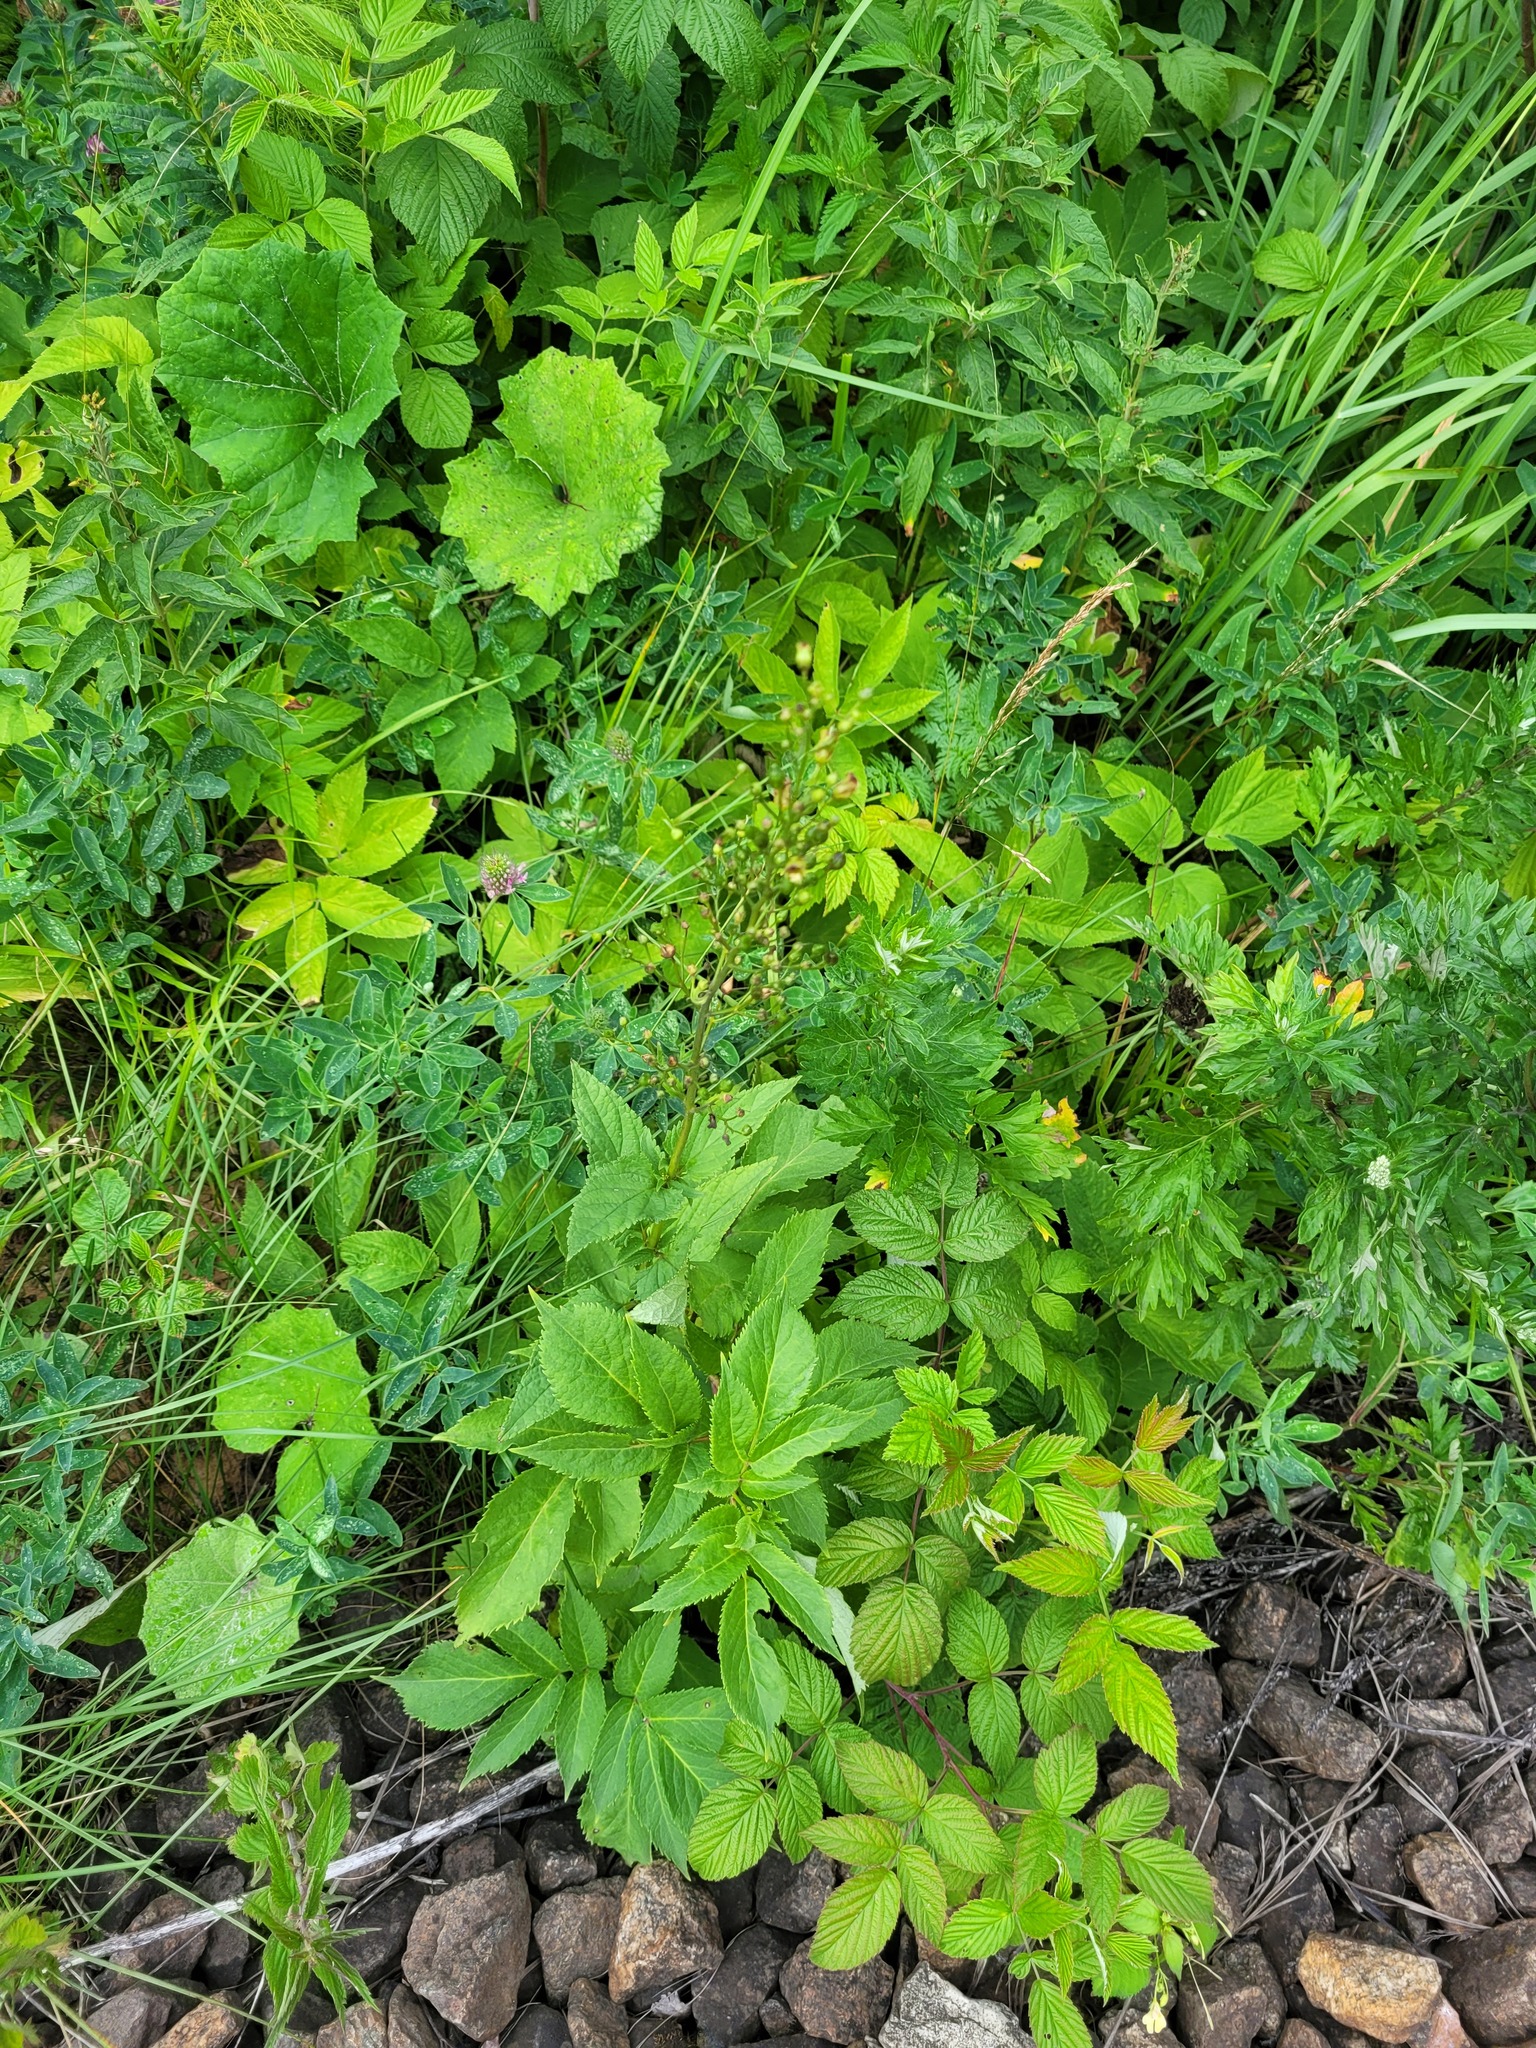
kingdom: Plantae
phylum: Tracheophyta
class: Magnoliopsida
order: Lamiales
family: Scrophulariaceae
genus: Scrophularia
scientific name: Scrophularia nodosa
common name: Common figwort
